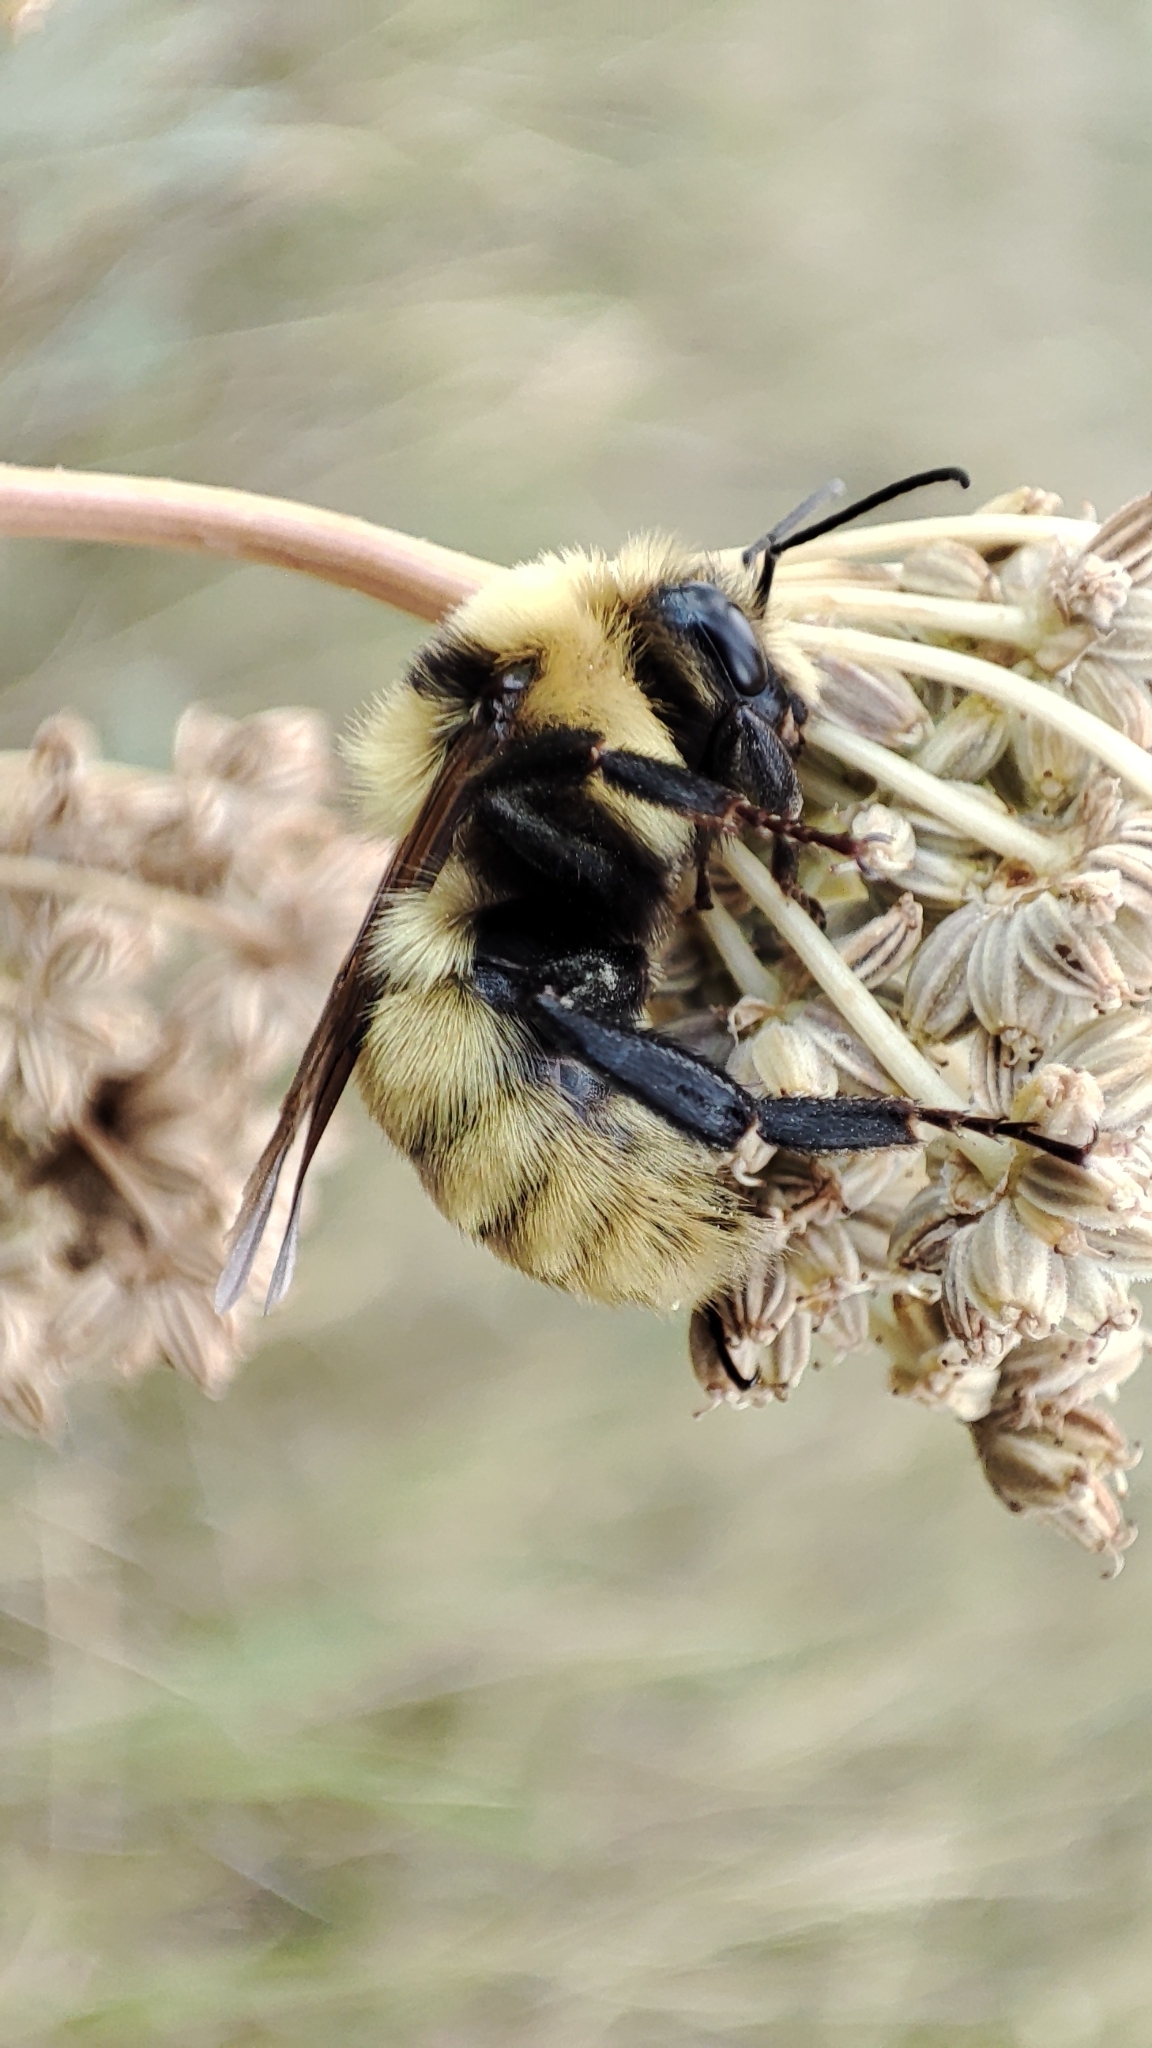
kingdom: Animalia
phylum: Arthropoda
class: Insecta
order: Hymenoptera
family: Apidae
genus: Bombus
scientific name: Bombus fragrans
